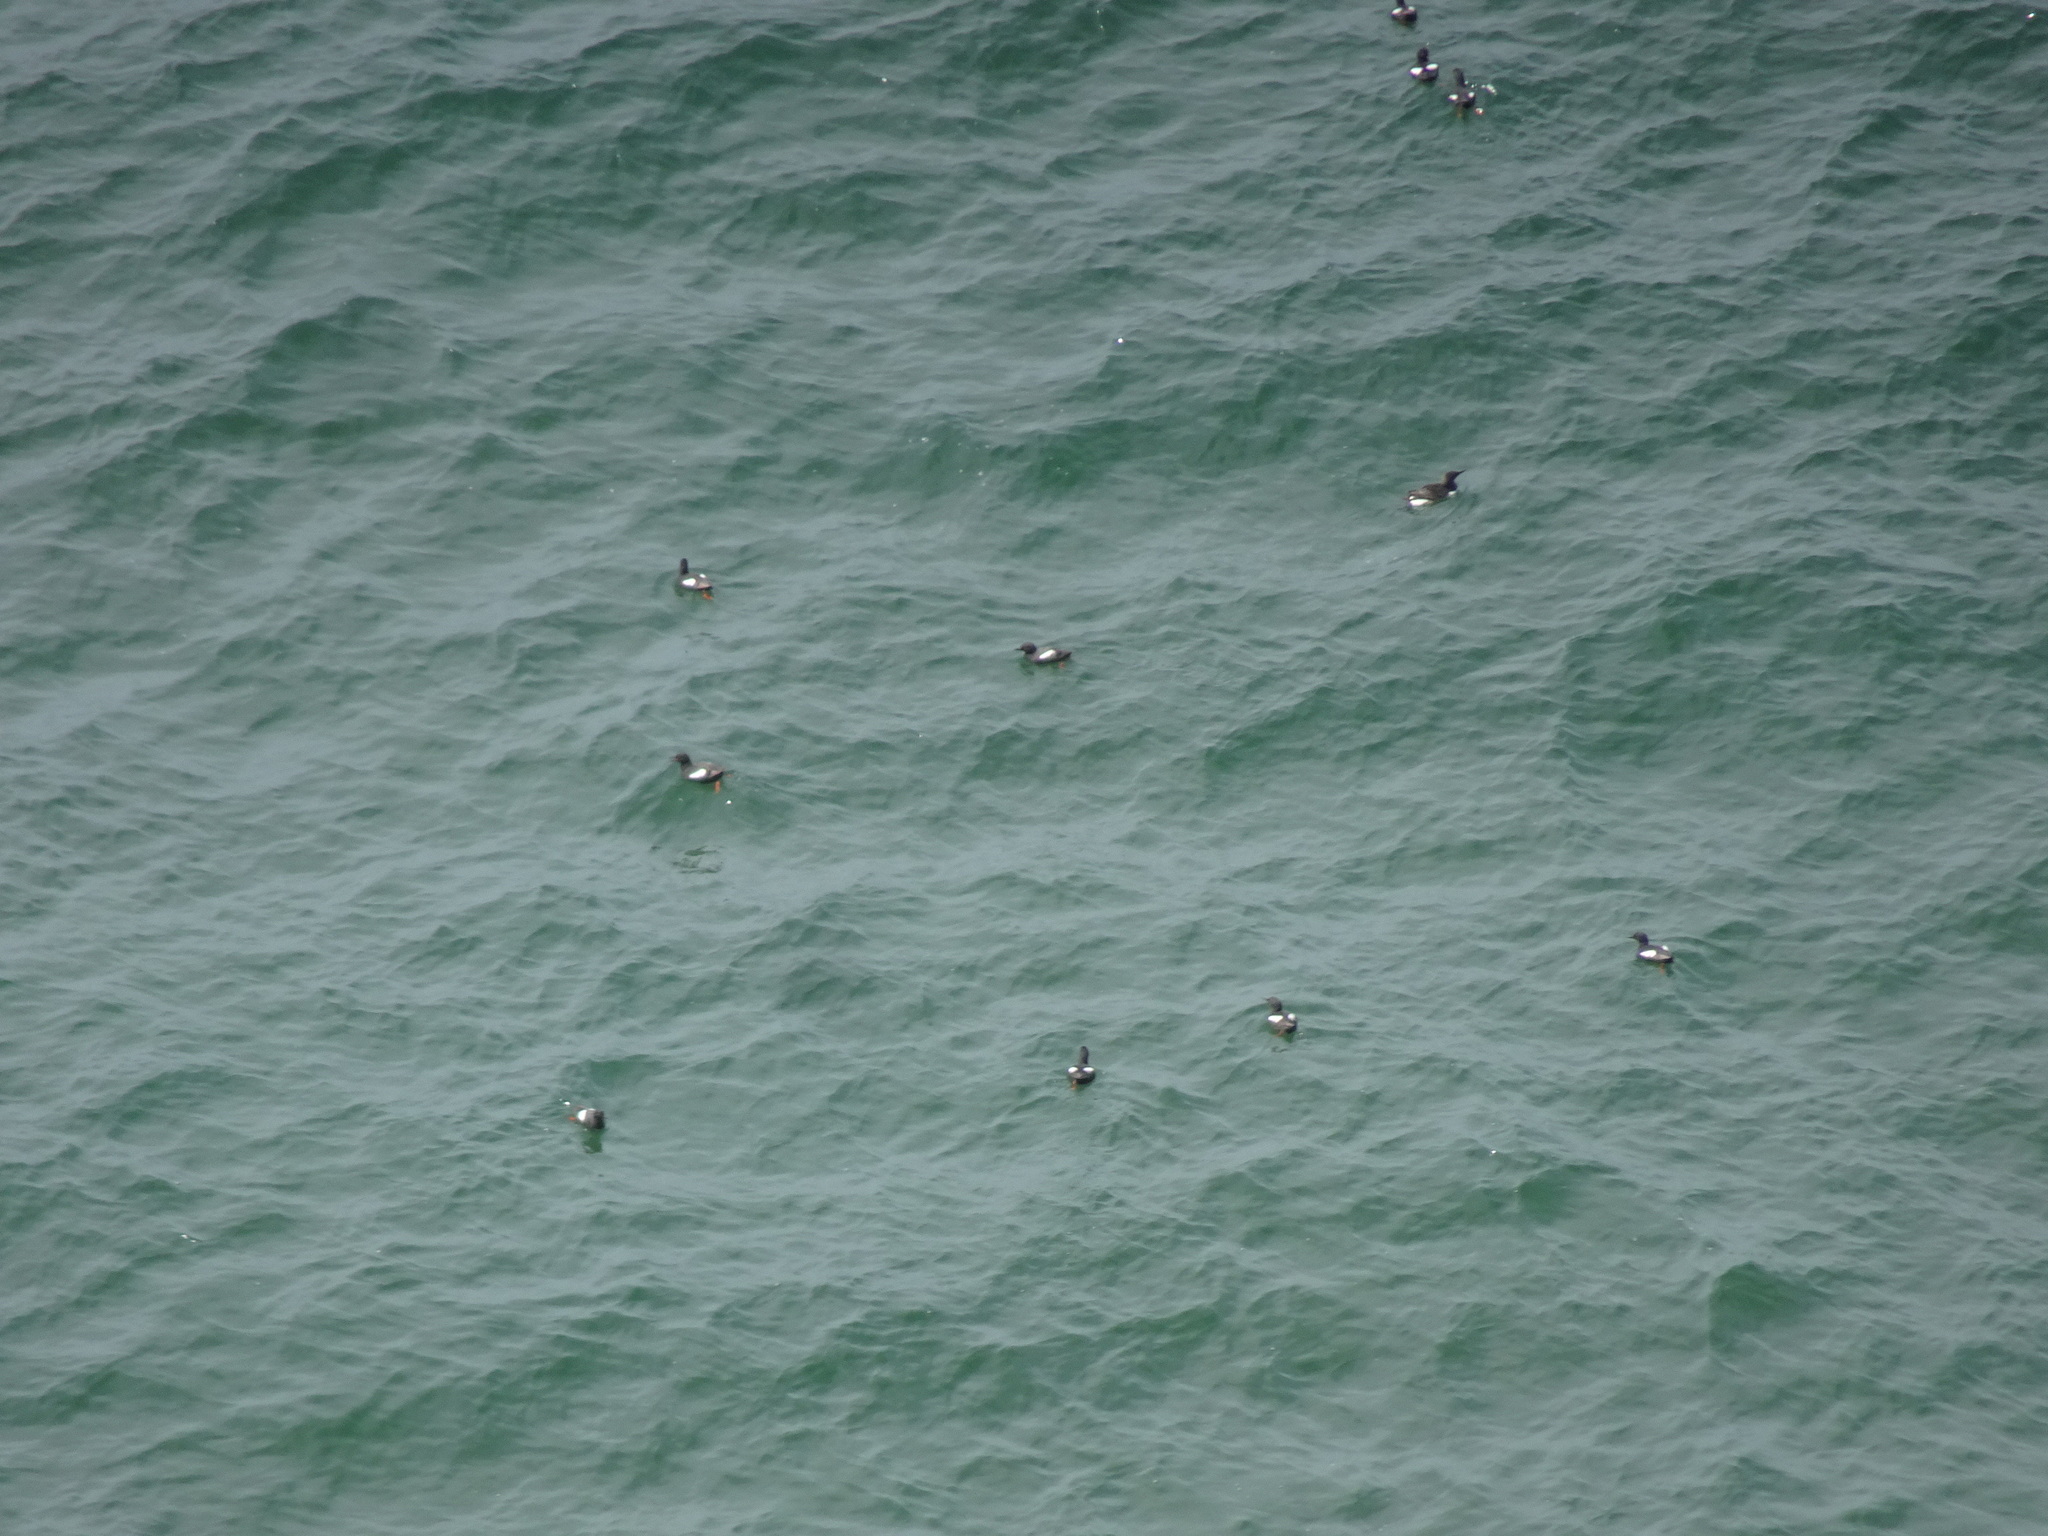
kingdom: Animalia
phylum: Chordata
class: Aves
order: Charadriiformes
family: Alcidae
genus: Cepphus
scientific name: Cepphus columba
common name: Pigeon guillemot
